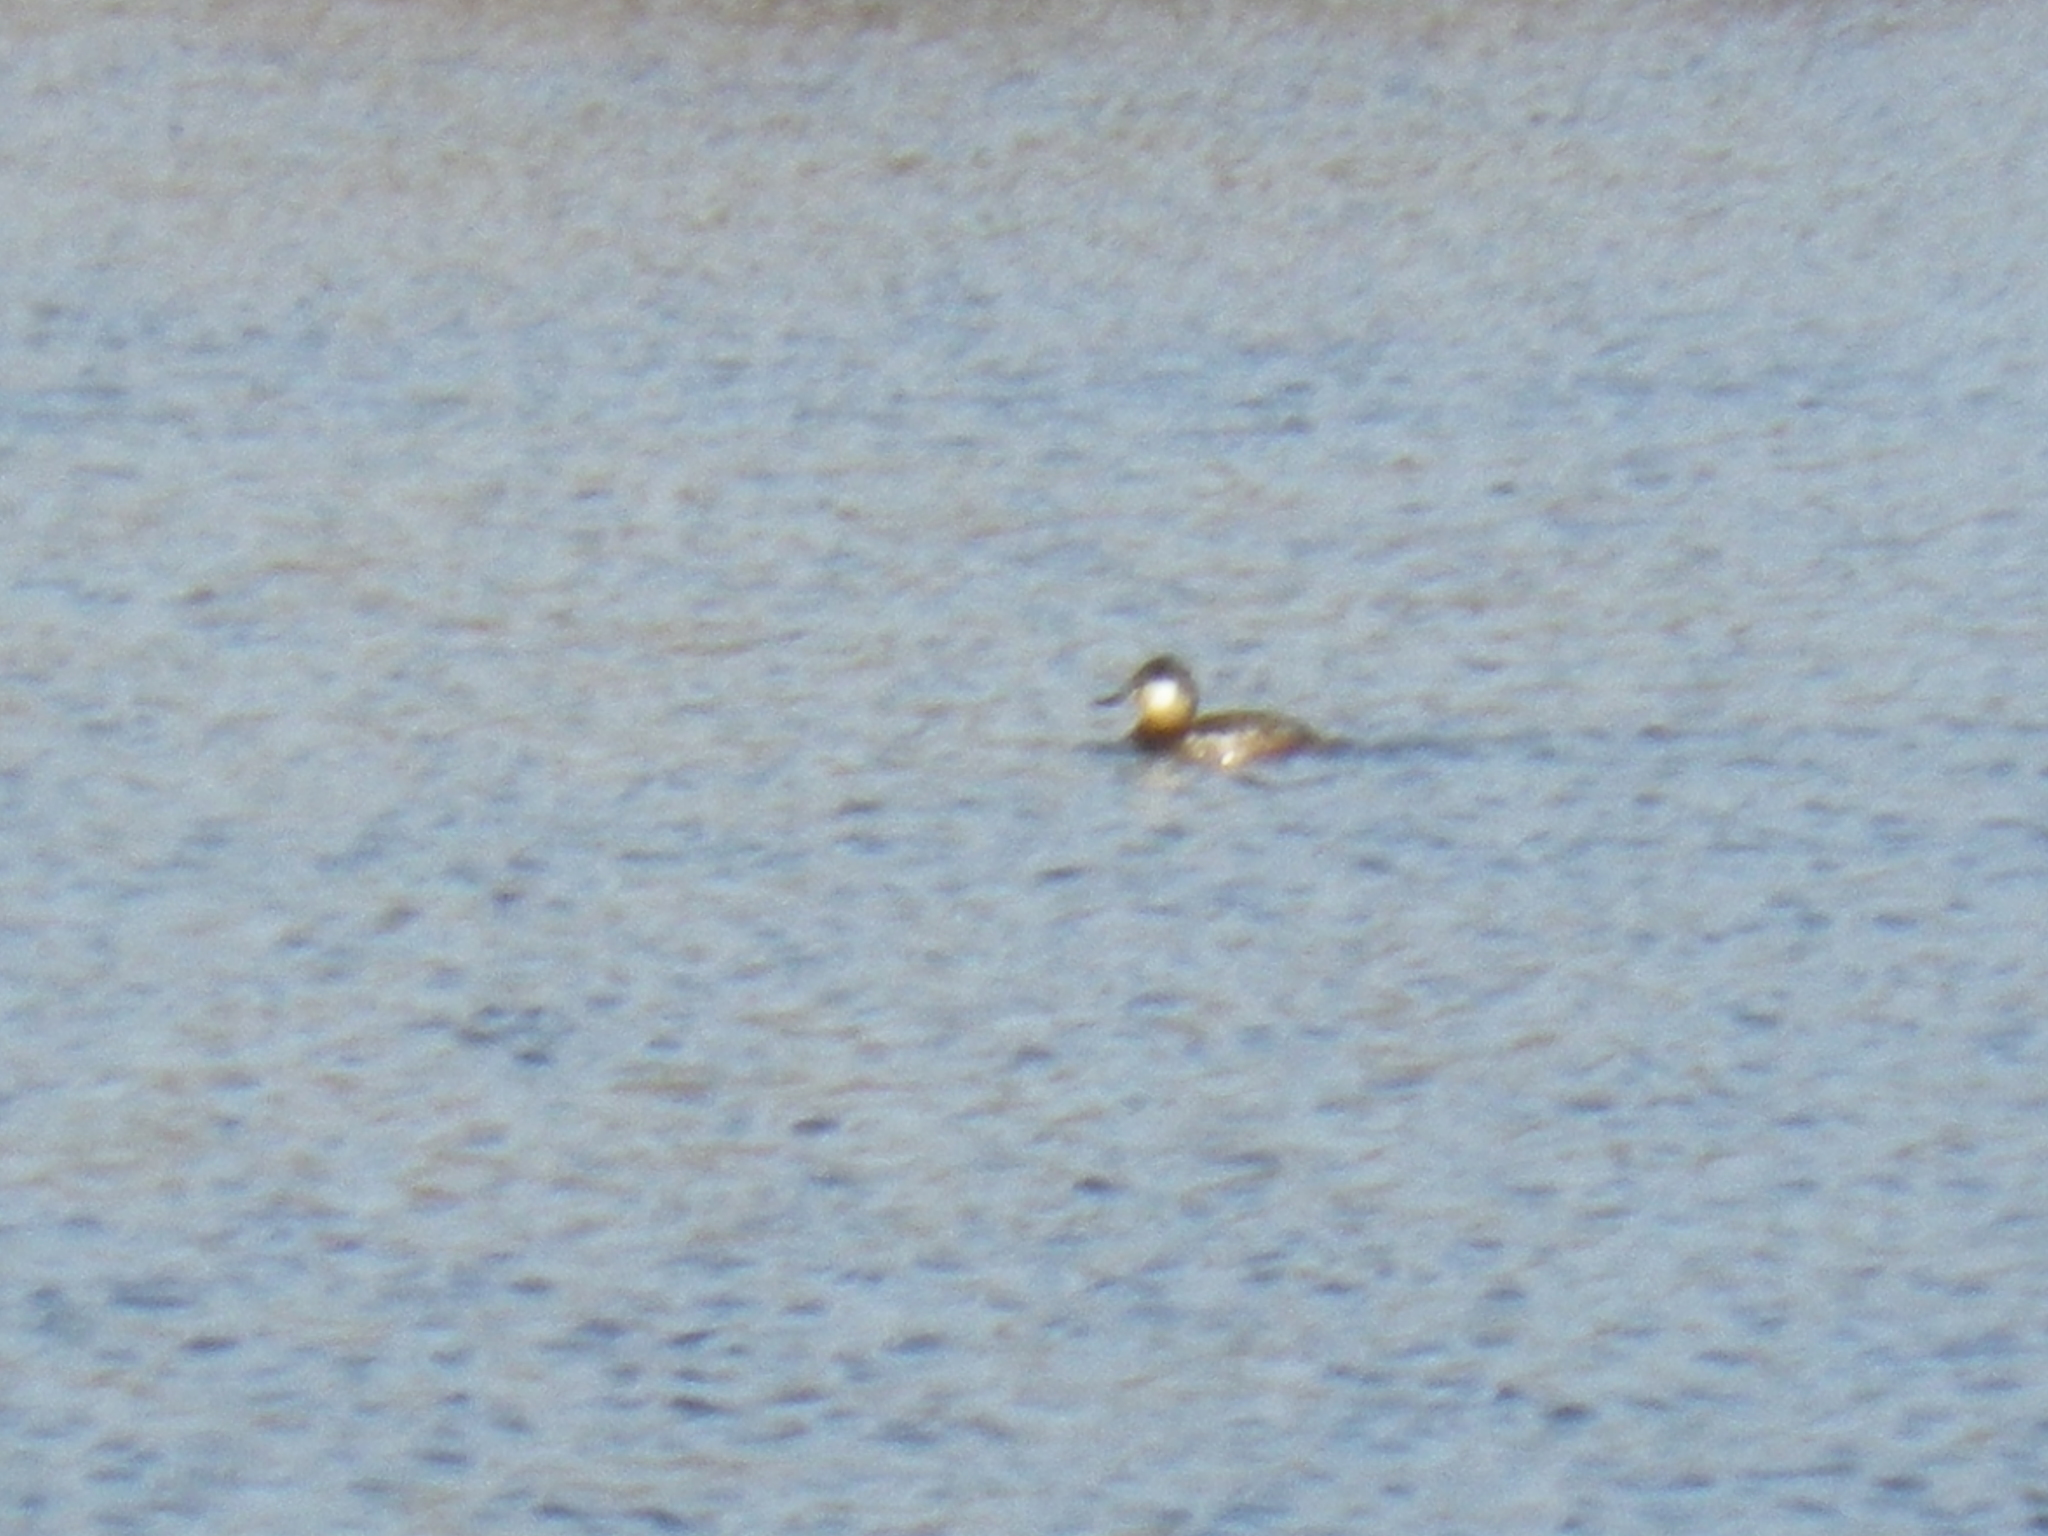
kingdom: Animalia
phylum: Chordata
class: Aves
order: Anseriformes
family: Anatidae
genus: Oxyura
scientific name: Oxyura jamaicensis
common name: Ruddy duck
